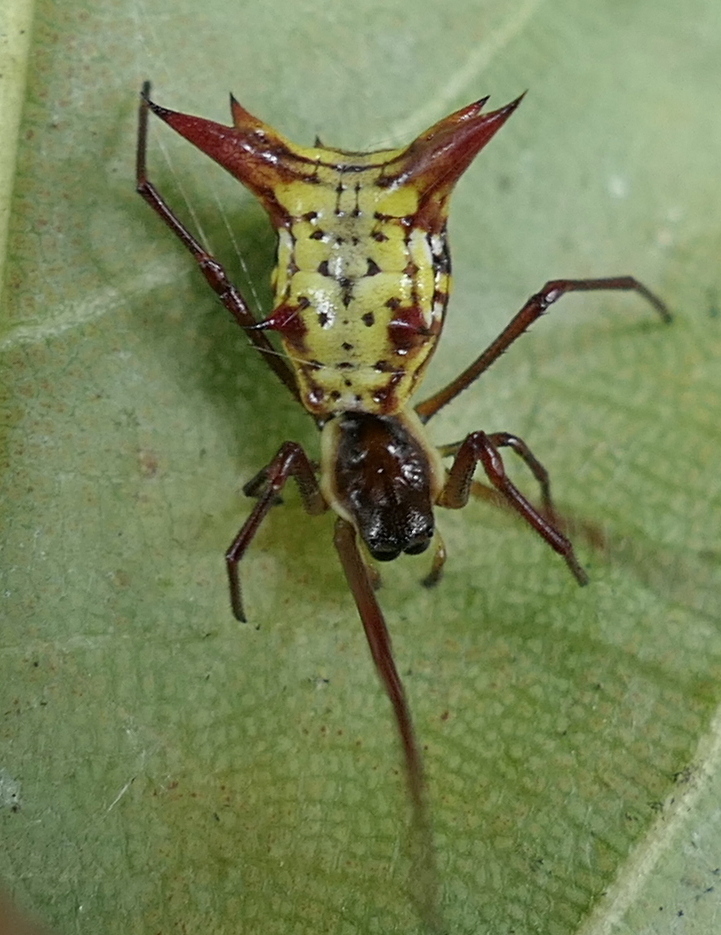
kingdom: Animalia
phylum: Arthropoda
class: Arachnida
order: Araneae
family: Araneidae
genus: Micrathena
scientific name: Micrathena fissispina
